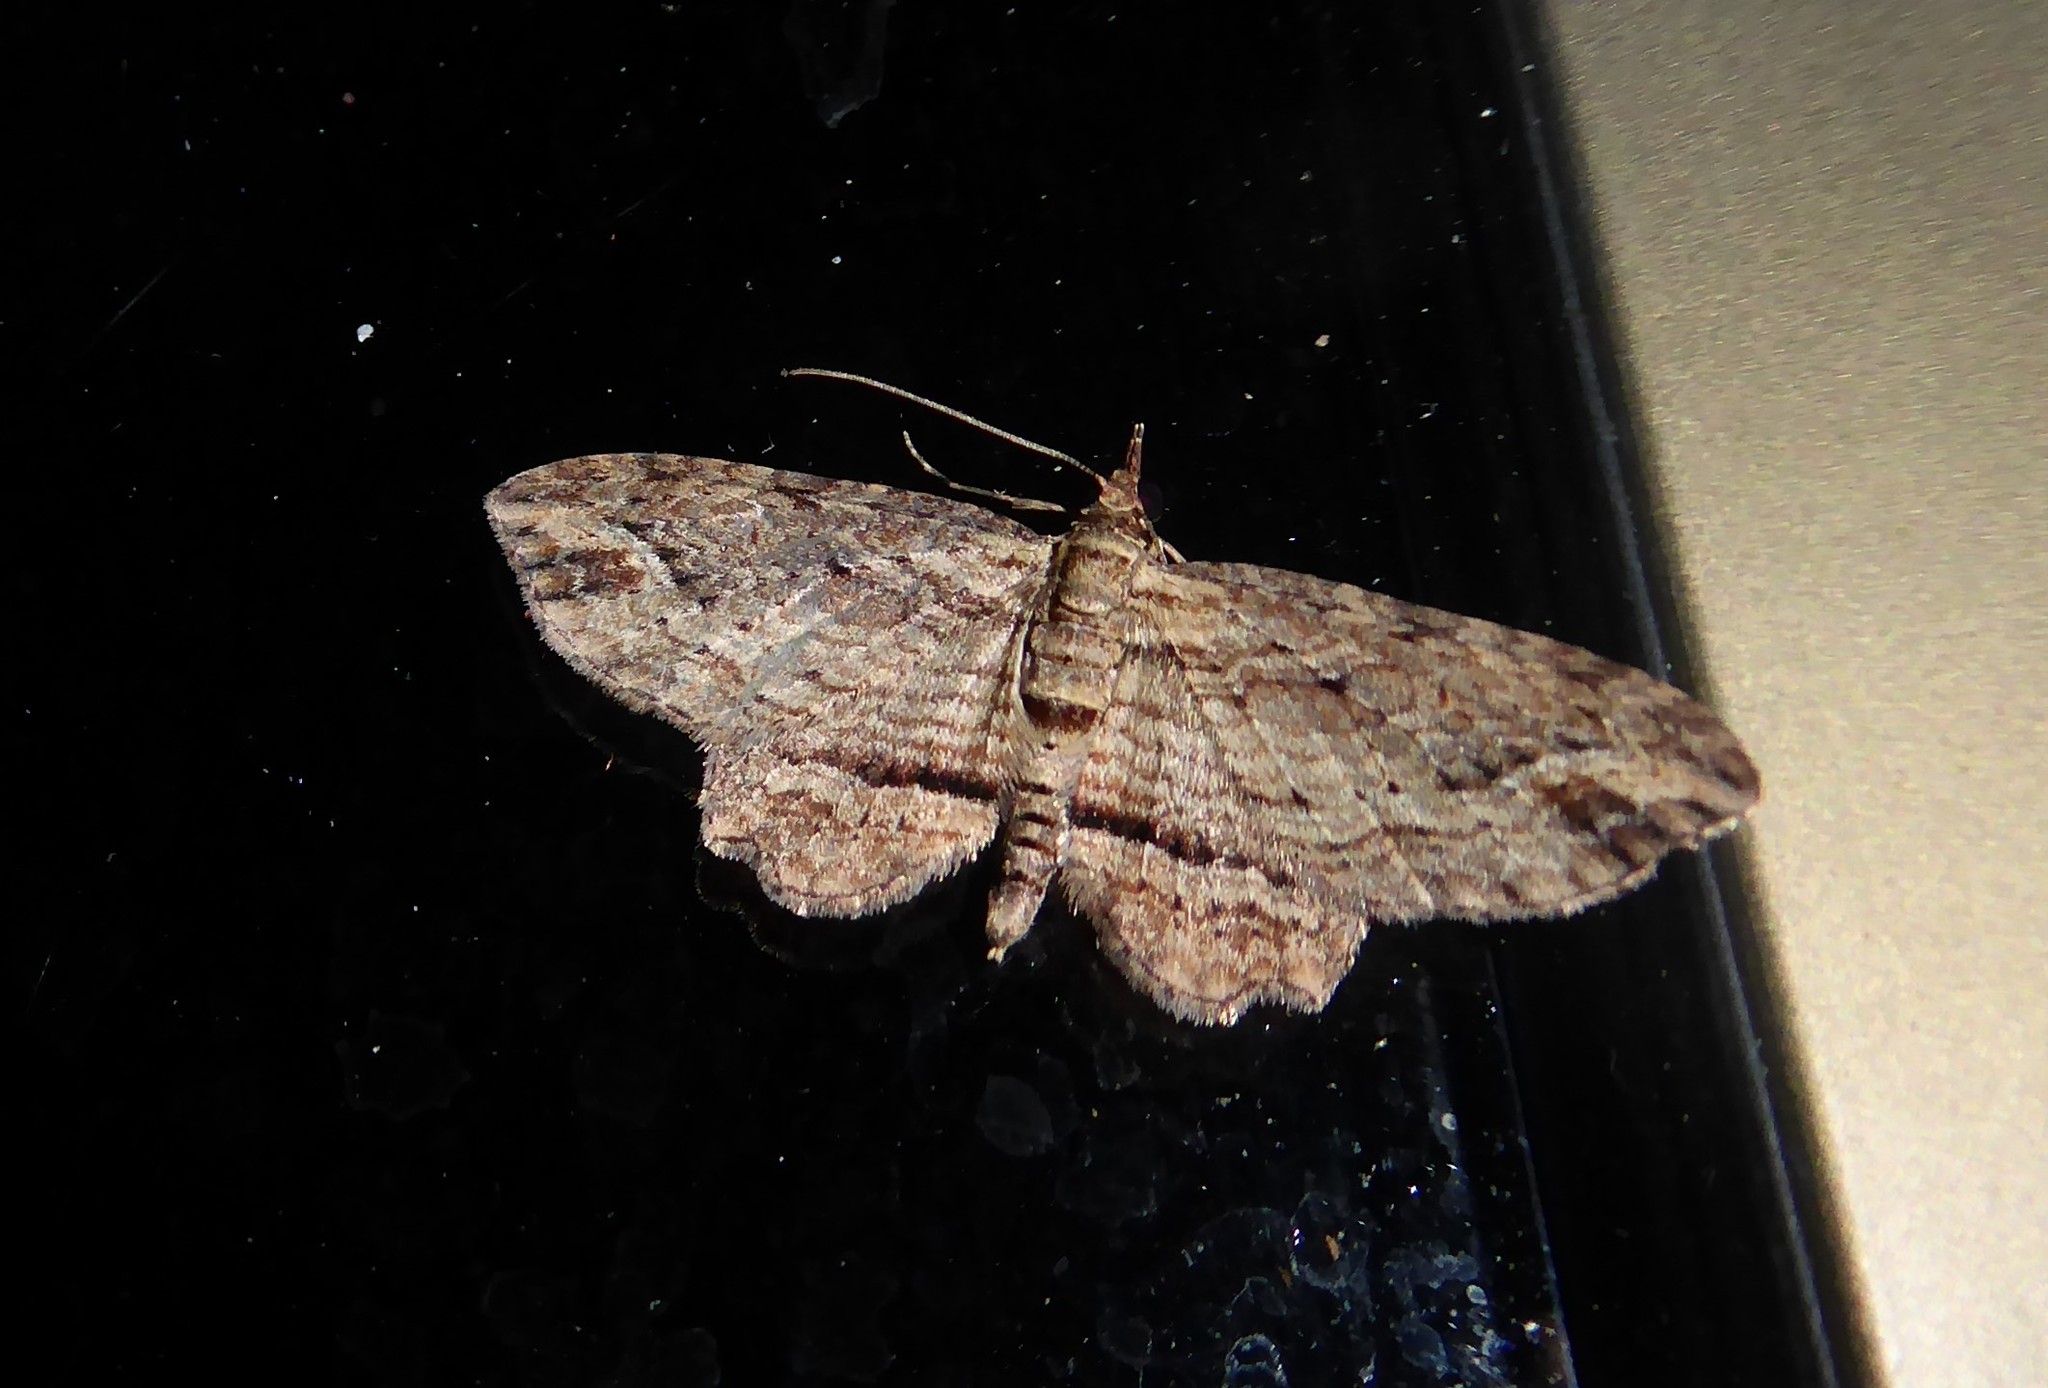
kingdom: Animalia
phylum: Arthropoda
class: Insecta
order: Lepidoptera
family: Geometridae
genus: Chloroclystis
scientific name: Chloroclystis filata
